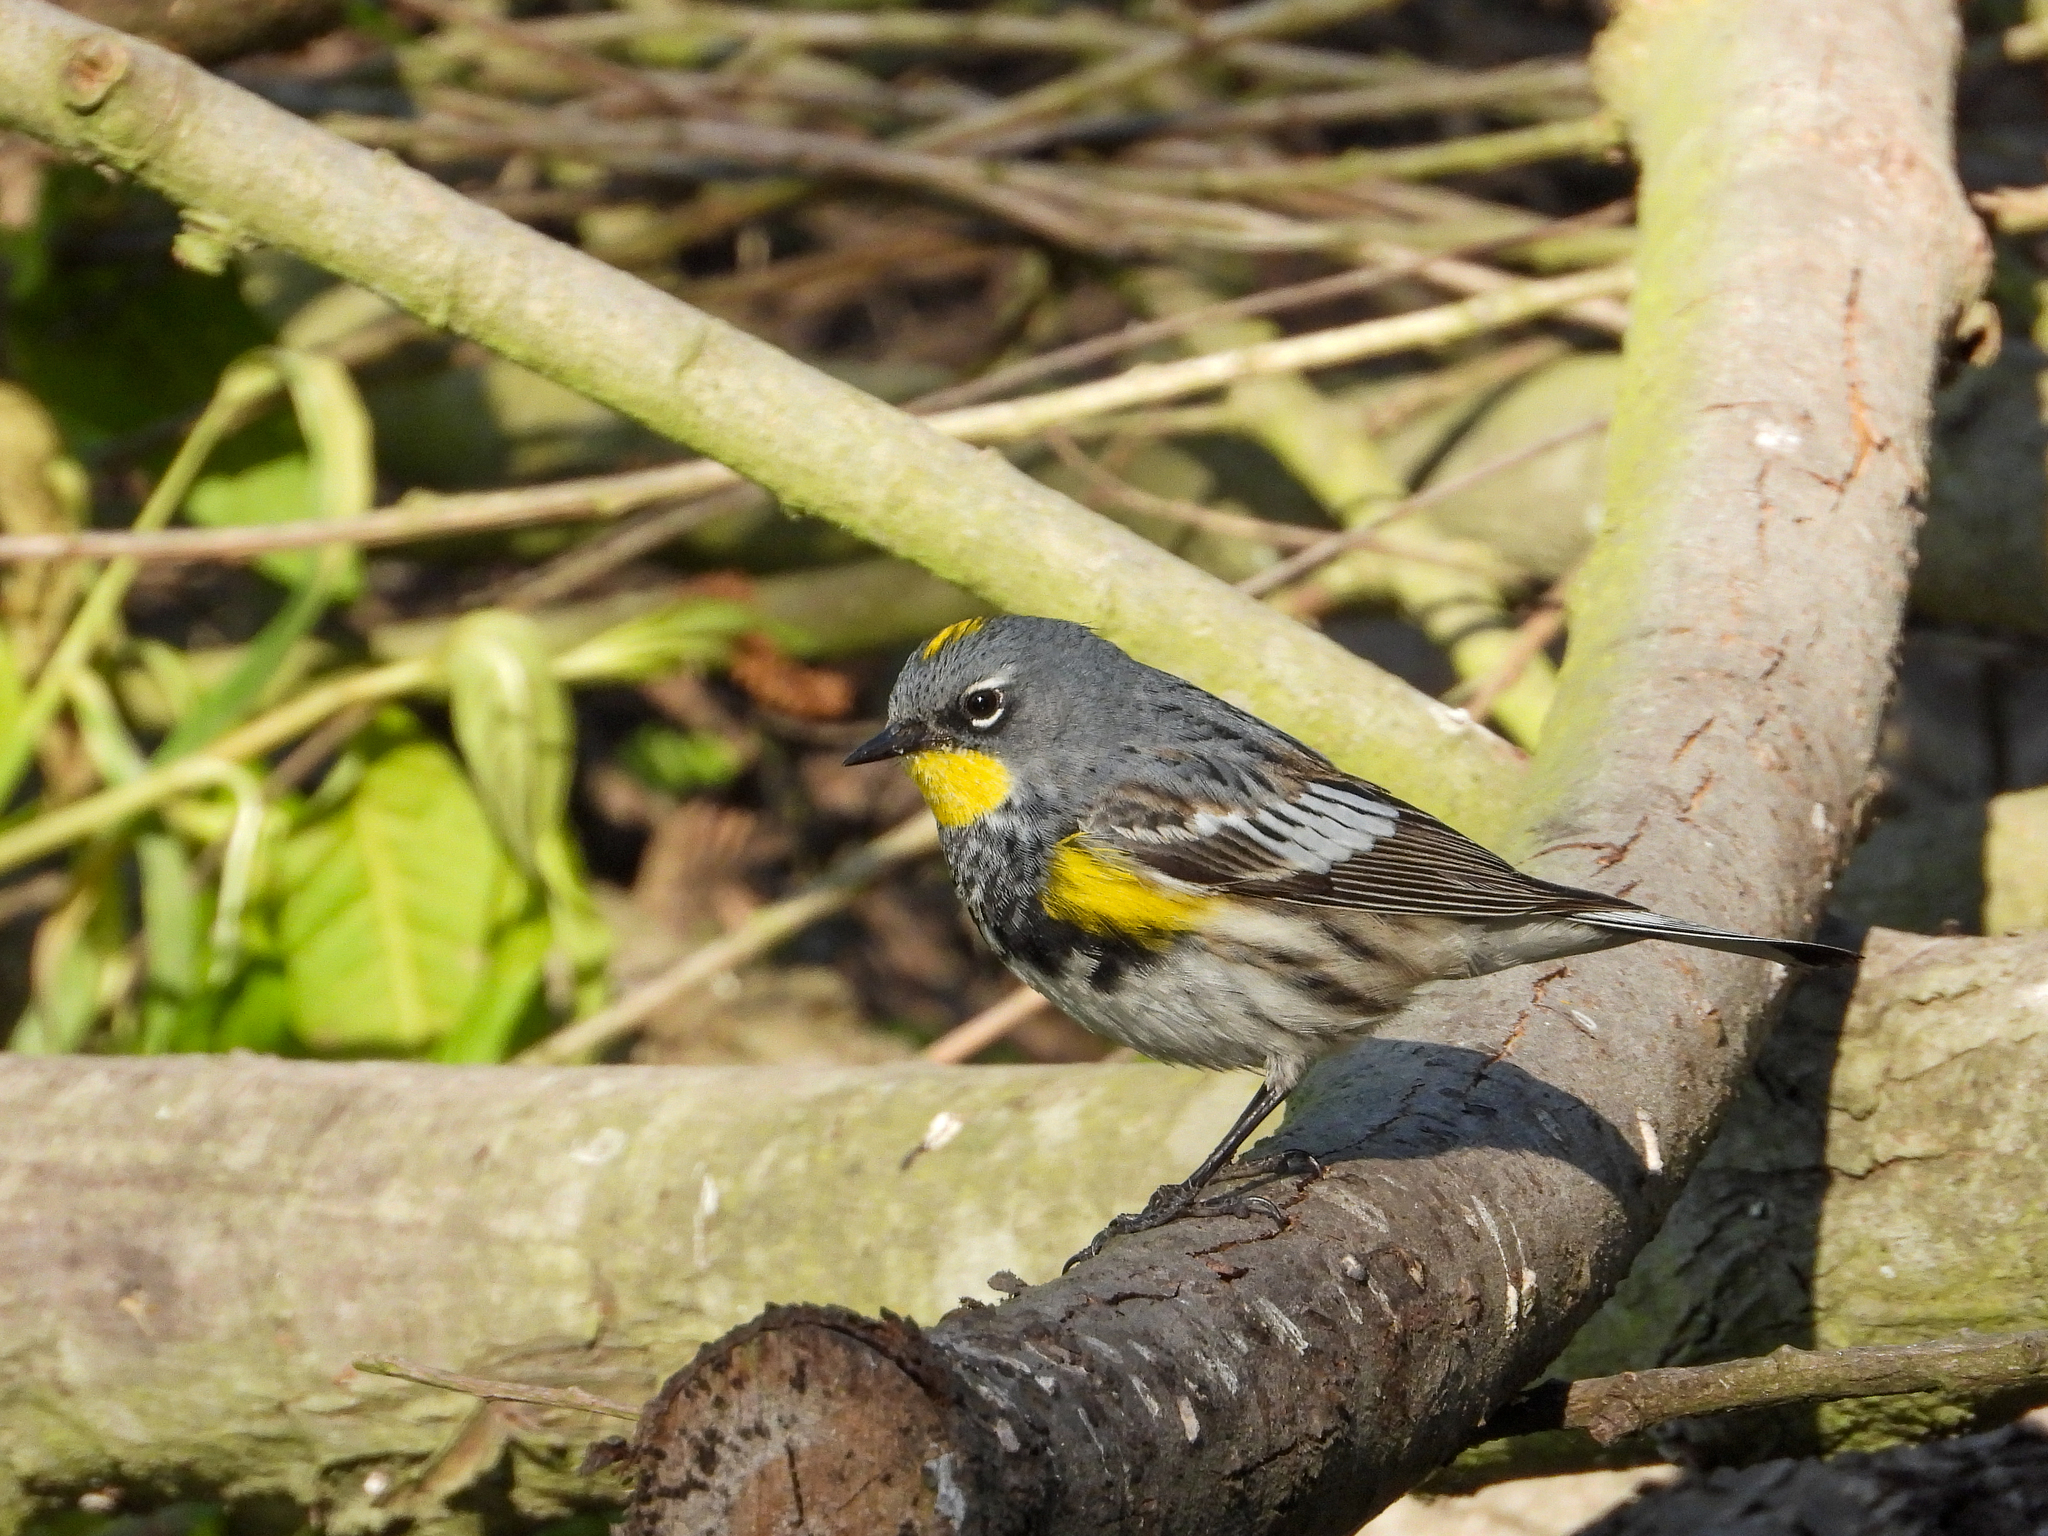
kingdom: Animalia
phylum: Chordata
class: Aves
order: Passeriformes
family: Parulidae
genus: Setophaga
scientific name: Setophaga auduboni
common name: Audubon's warbler
